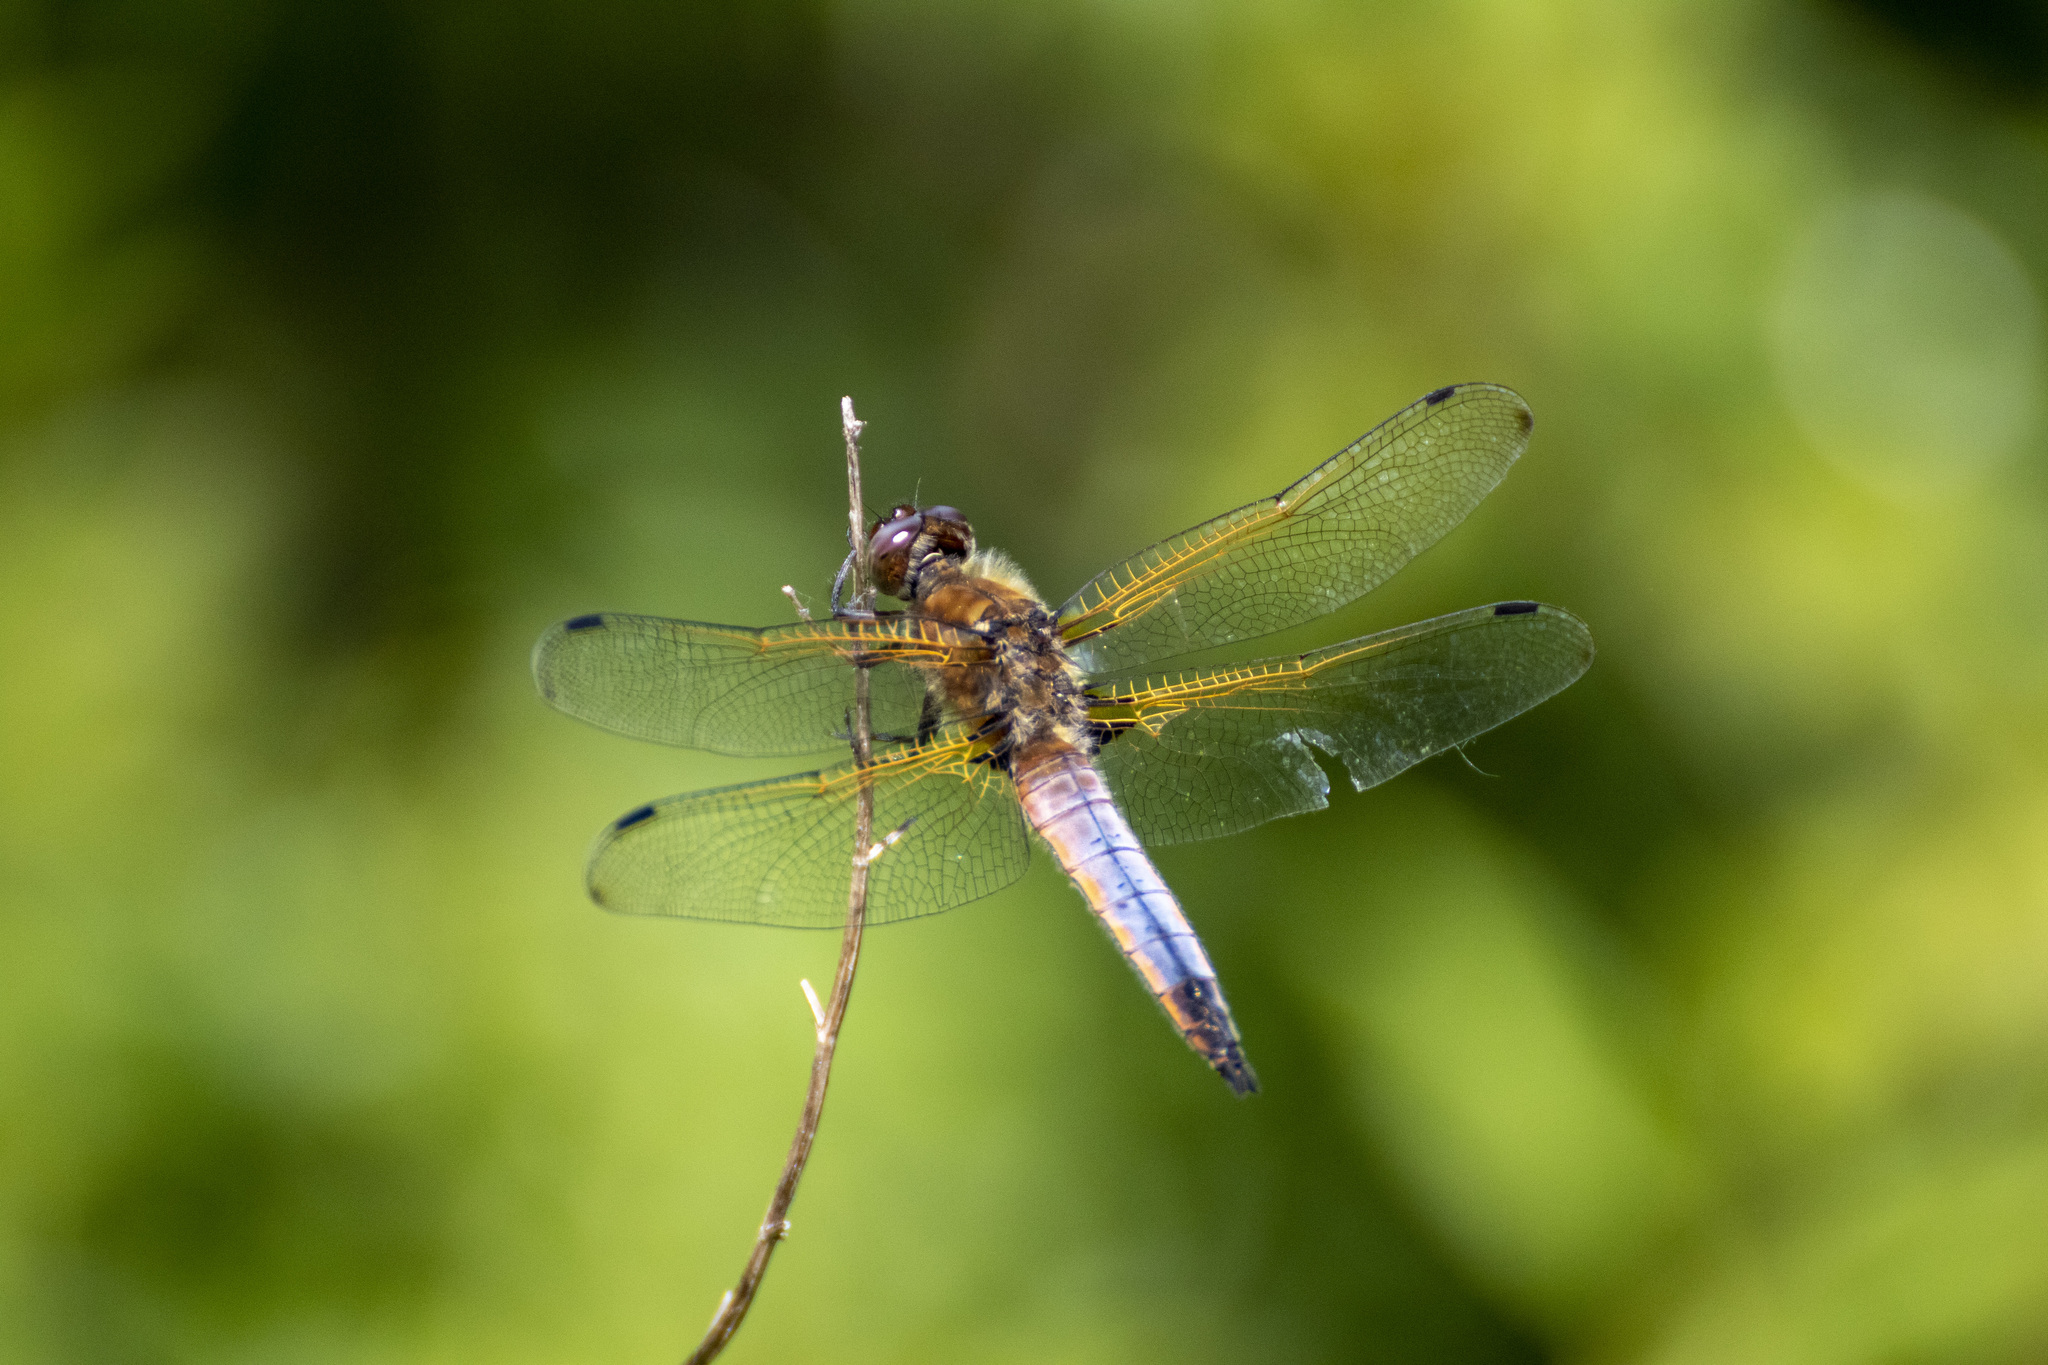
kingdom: Animalia
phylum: Arthropoda
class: Insecta
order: Odonata
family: Libellulidae
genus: Libellula
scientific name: Libellula fulva
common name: Blue chaser
